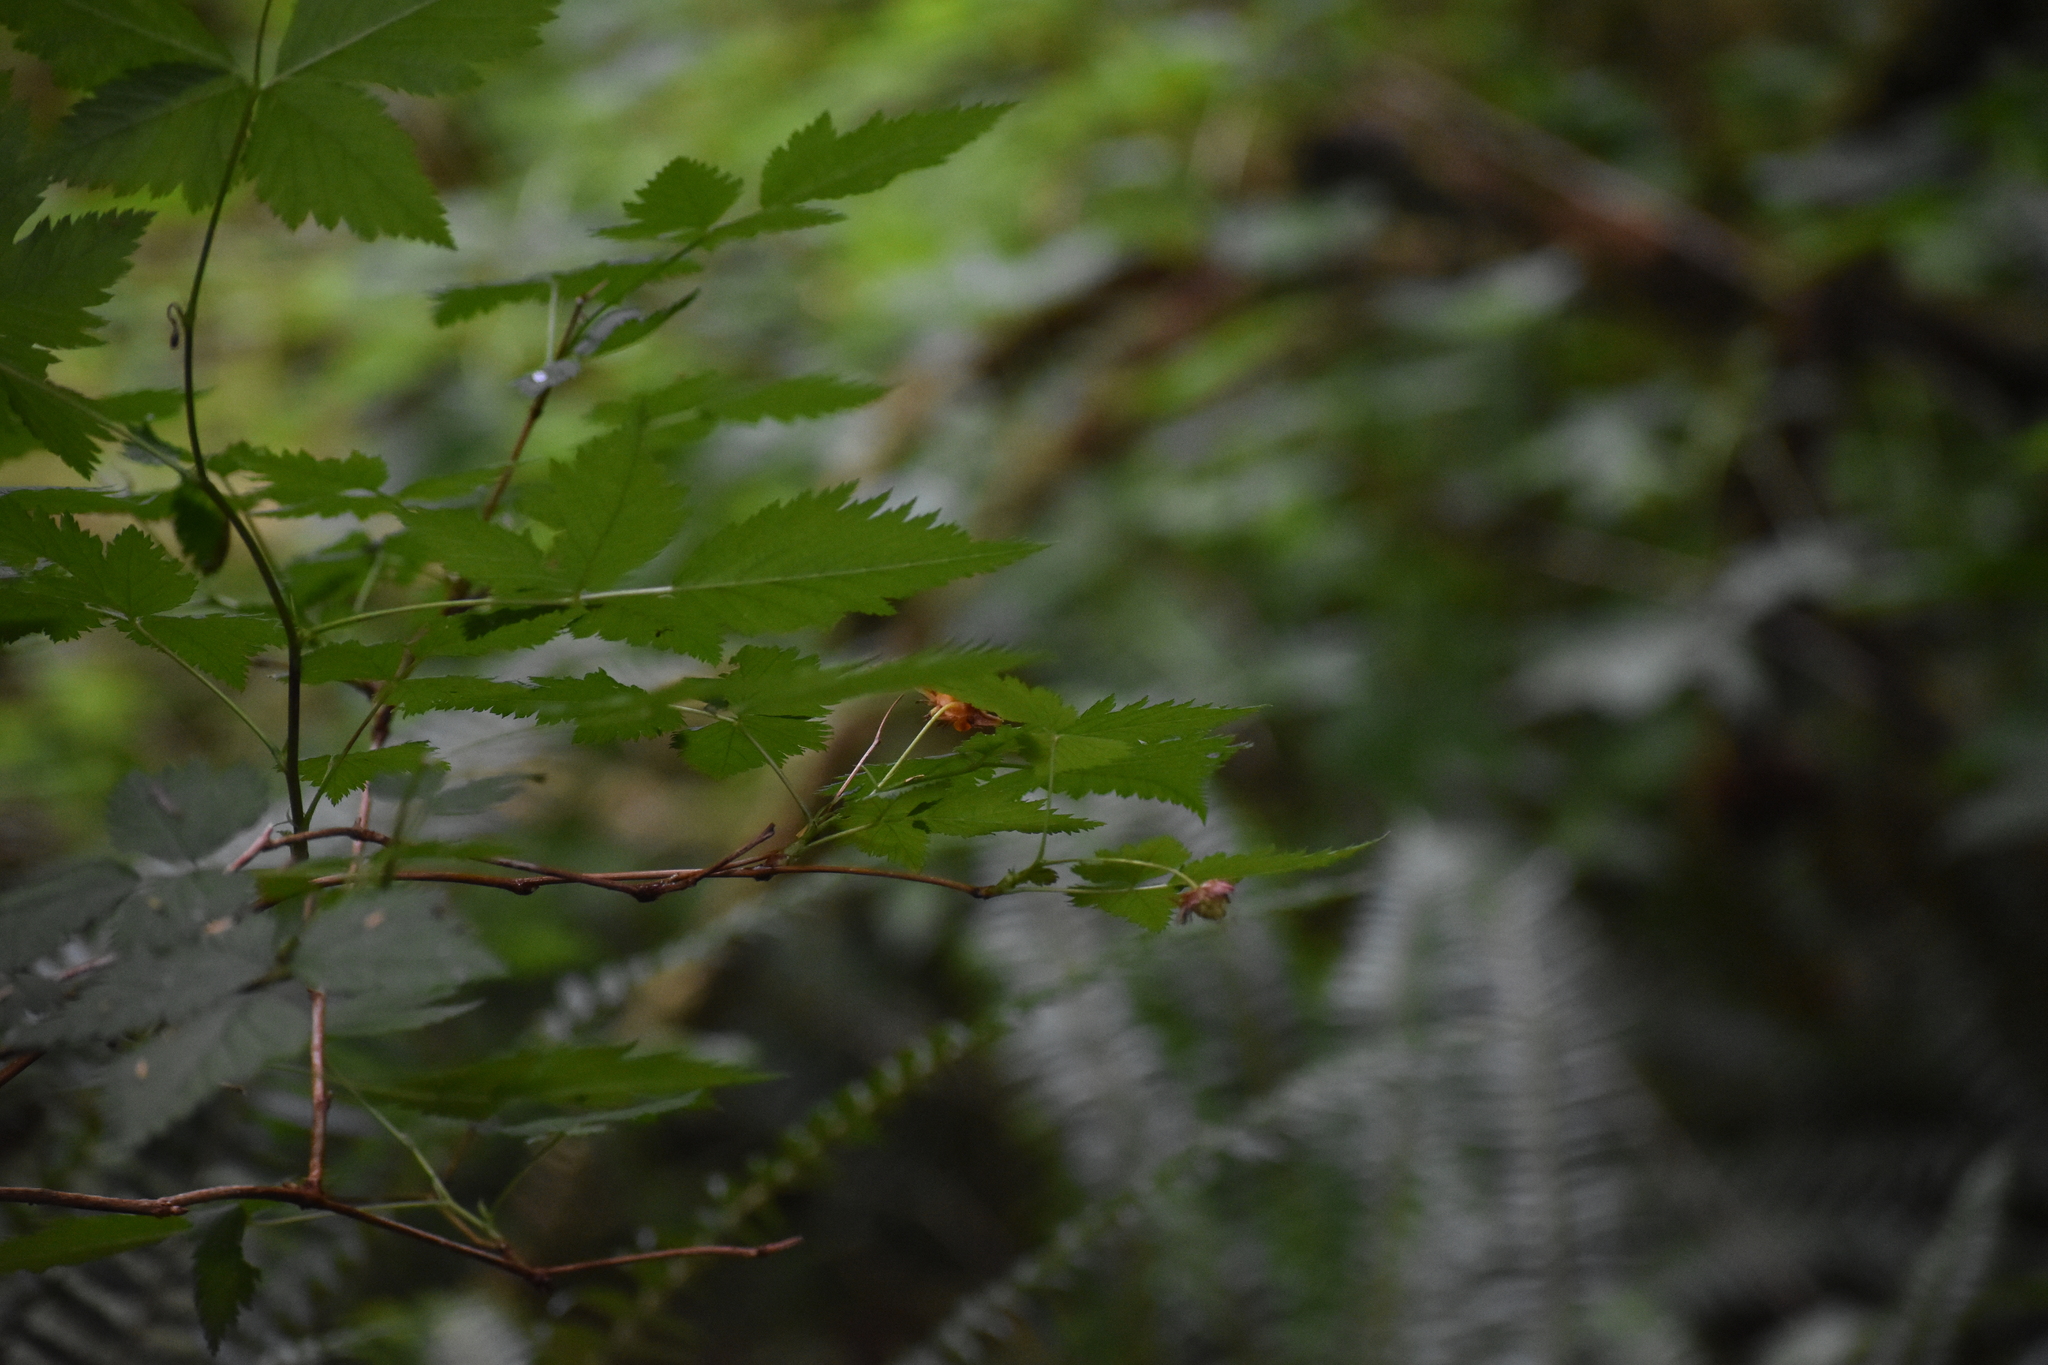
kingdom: Plantae
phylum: Tracheophyta
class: Magnoliopsida
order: Rosales
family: Rosaceae
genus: Rubus
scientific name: Rubus spectabilis
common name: Salmonberry
